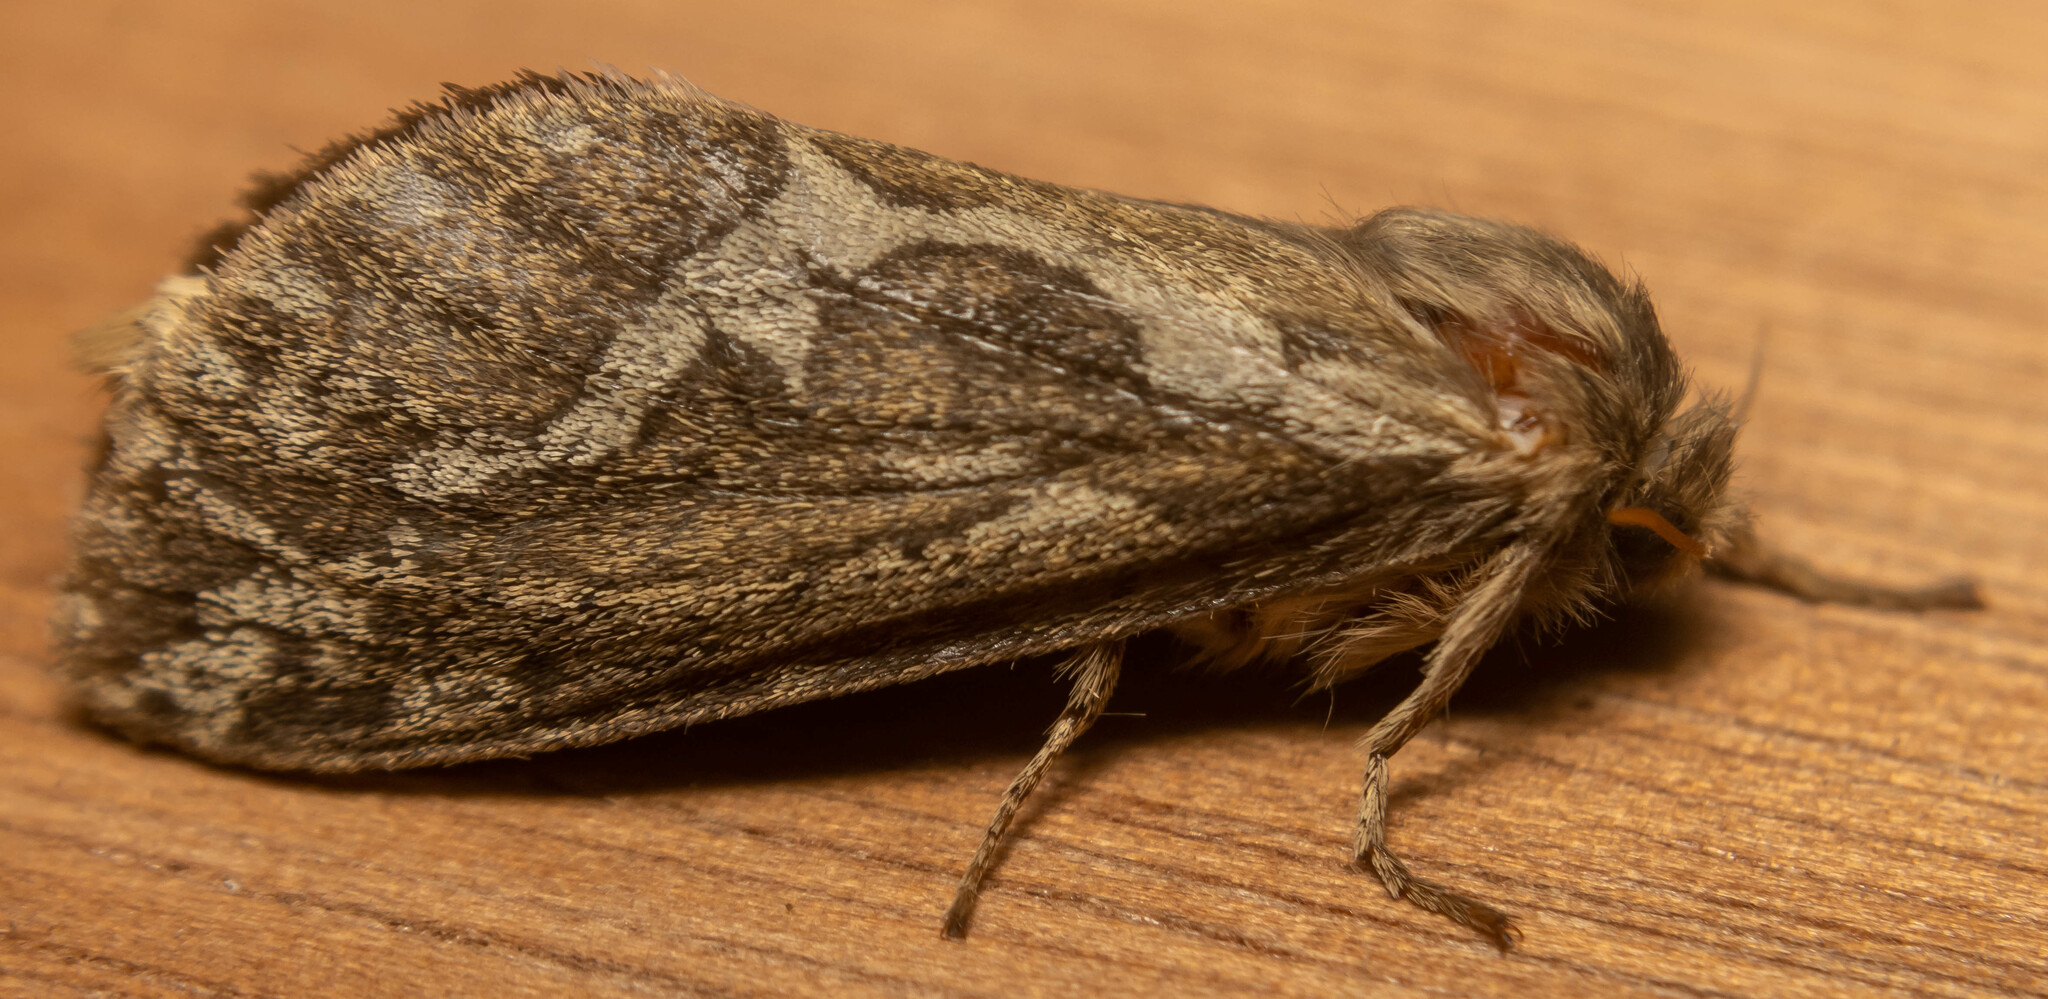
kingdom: Animalia
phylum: Arthropoda
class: Insecta
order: Lepidoptera
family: Hepialidae
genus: Korscheltellus
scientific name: Korscheltellus lupulina
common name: Common swift
